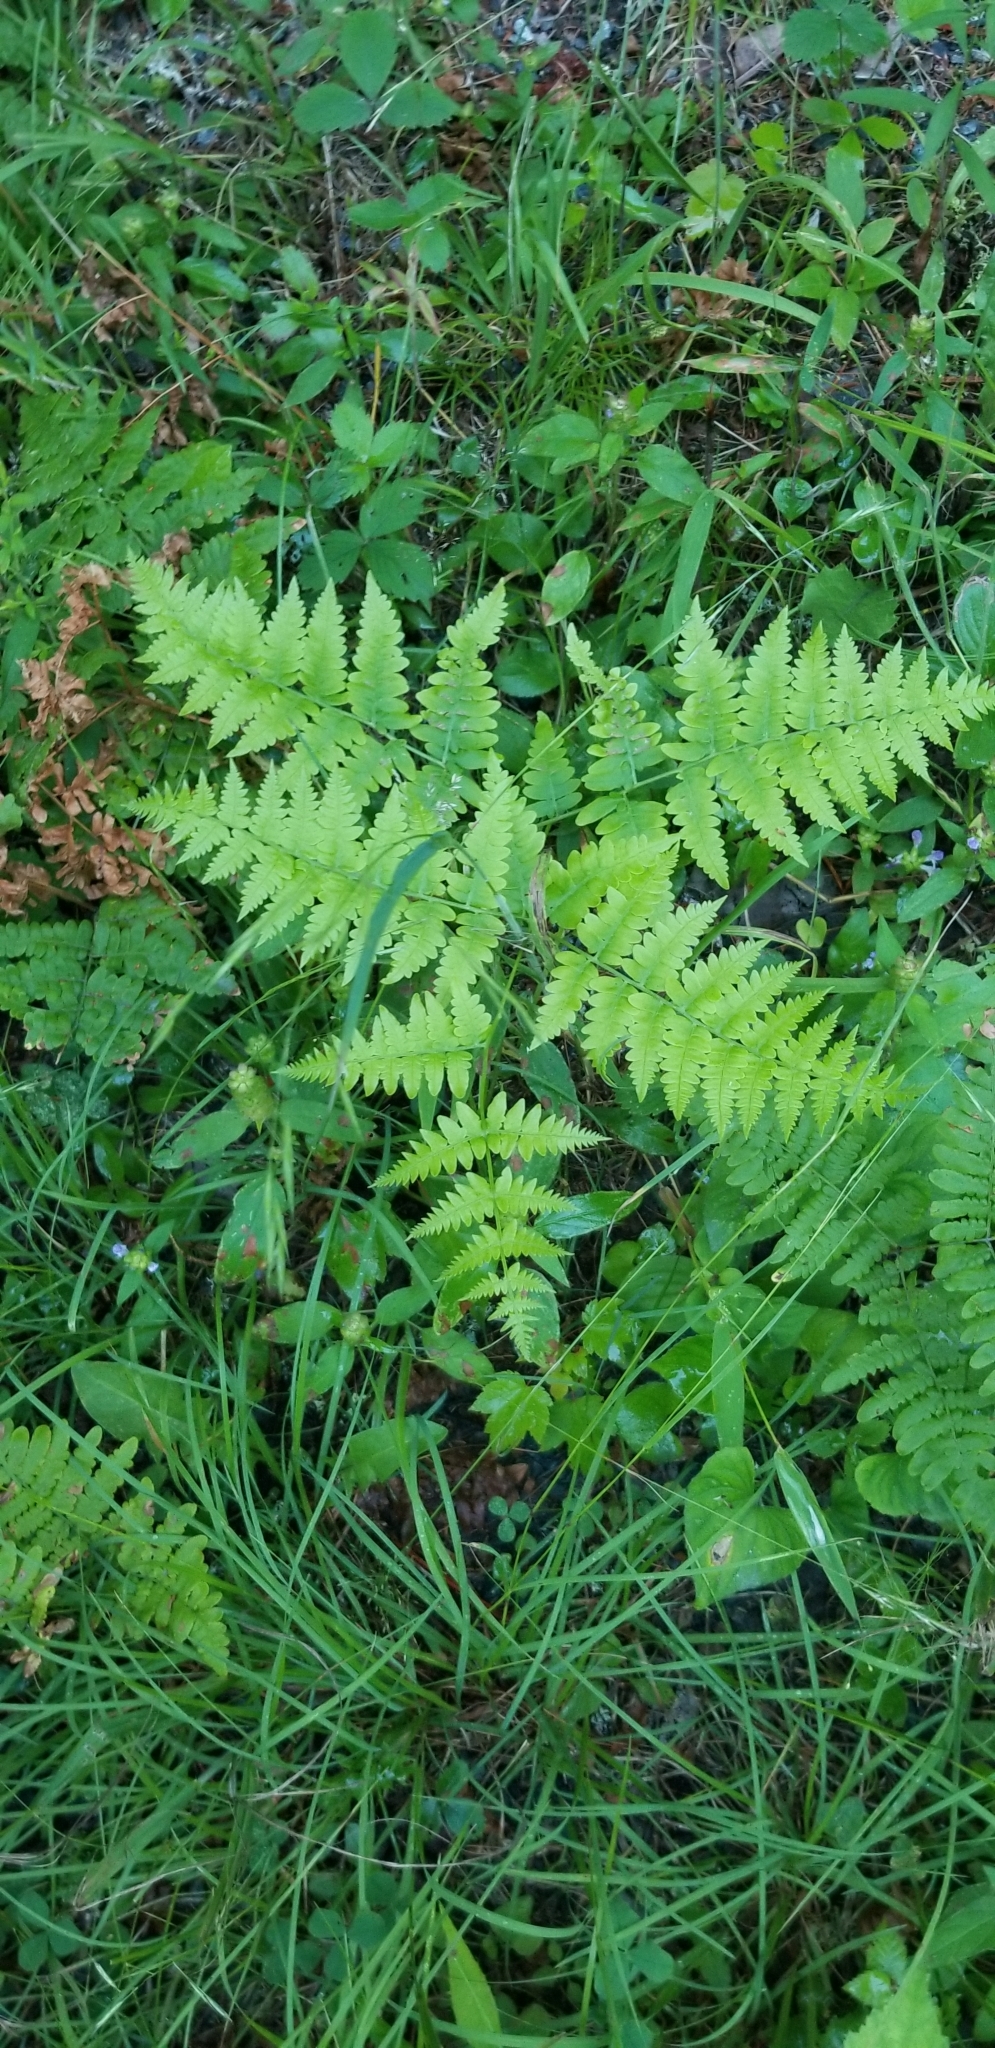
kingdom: Plantae
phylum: Tracheophyta
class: Polypodiopsida
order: Polypodiales
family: Dennstaedtiaceae
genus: Pteridium
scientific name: Pteridium aquilinum
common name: Bracken
